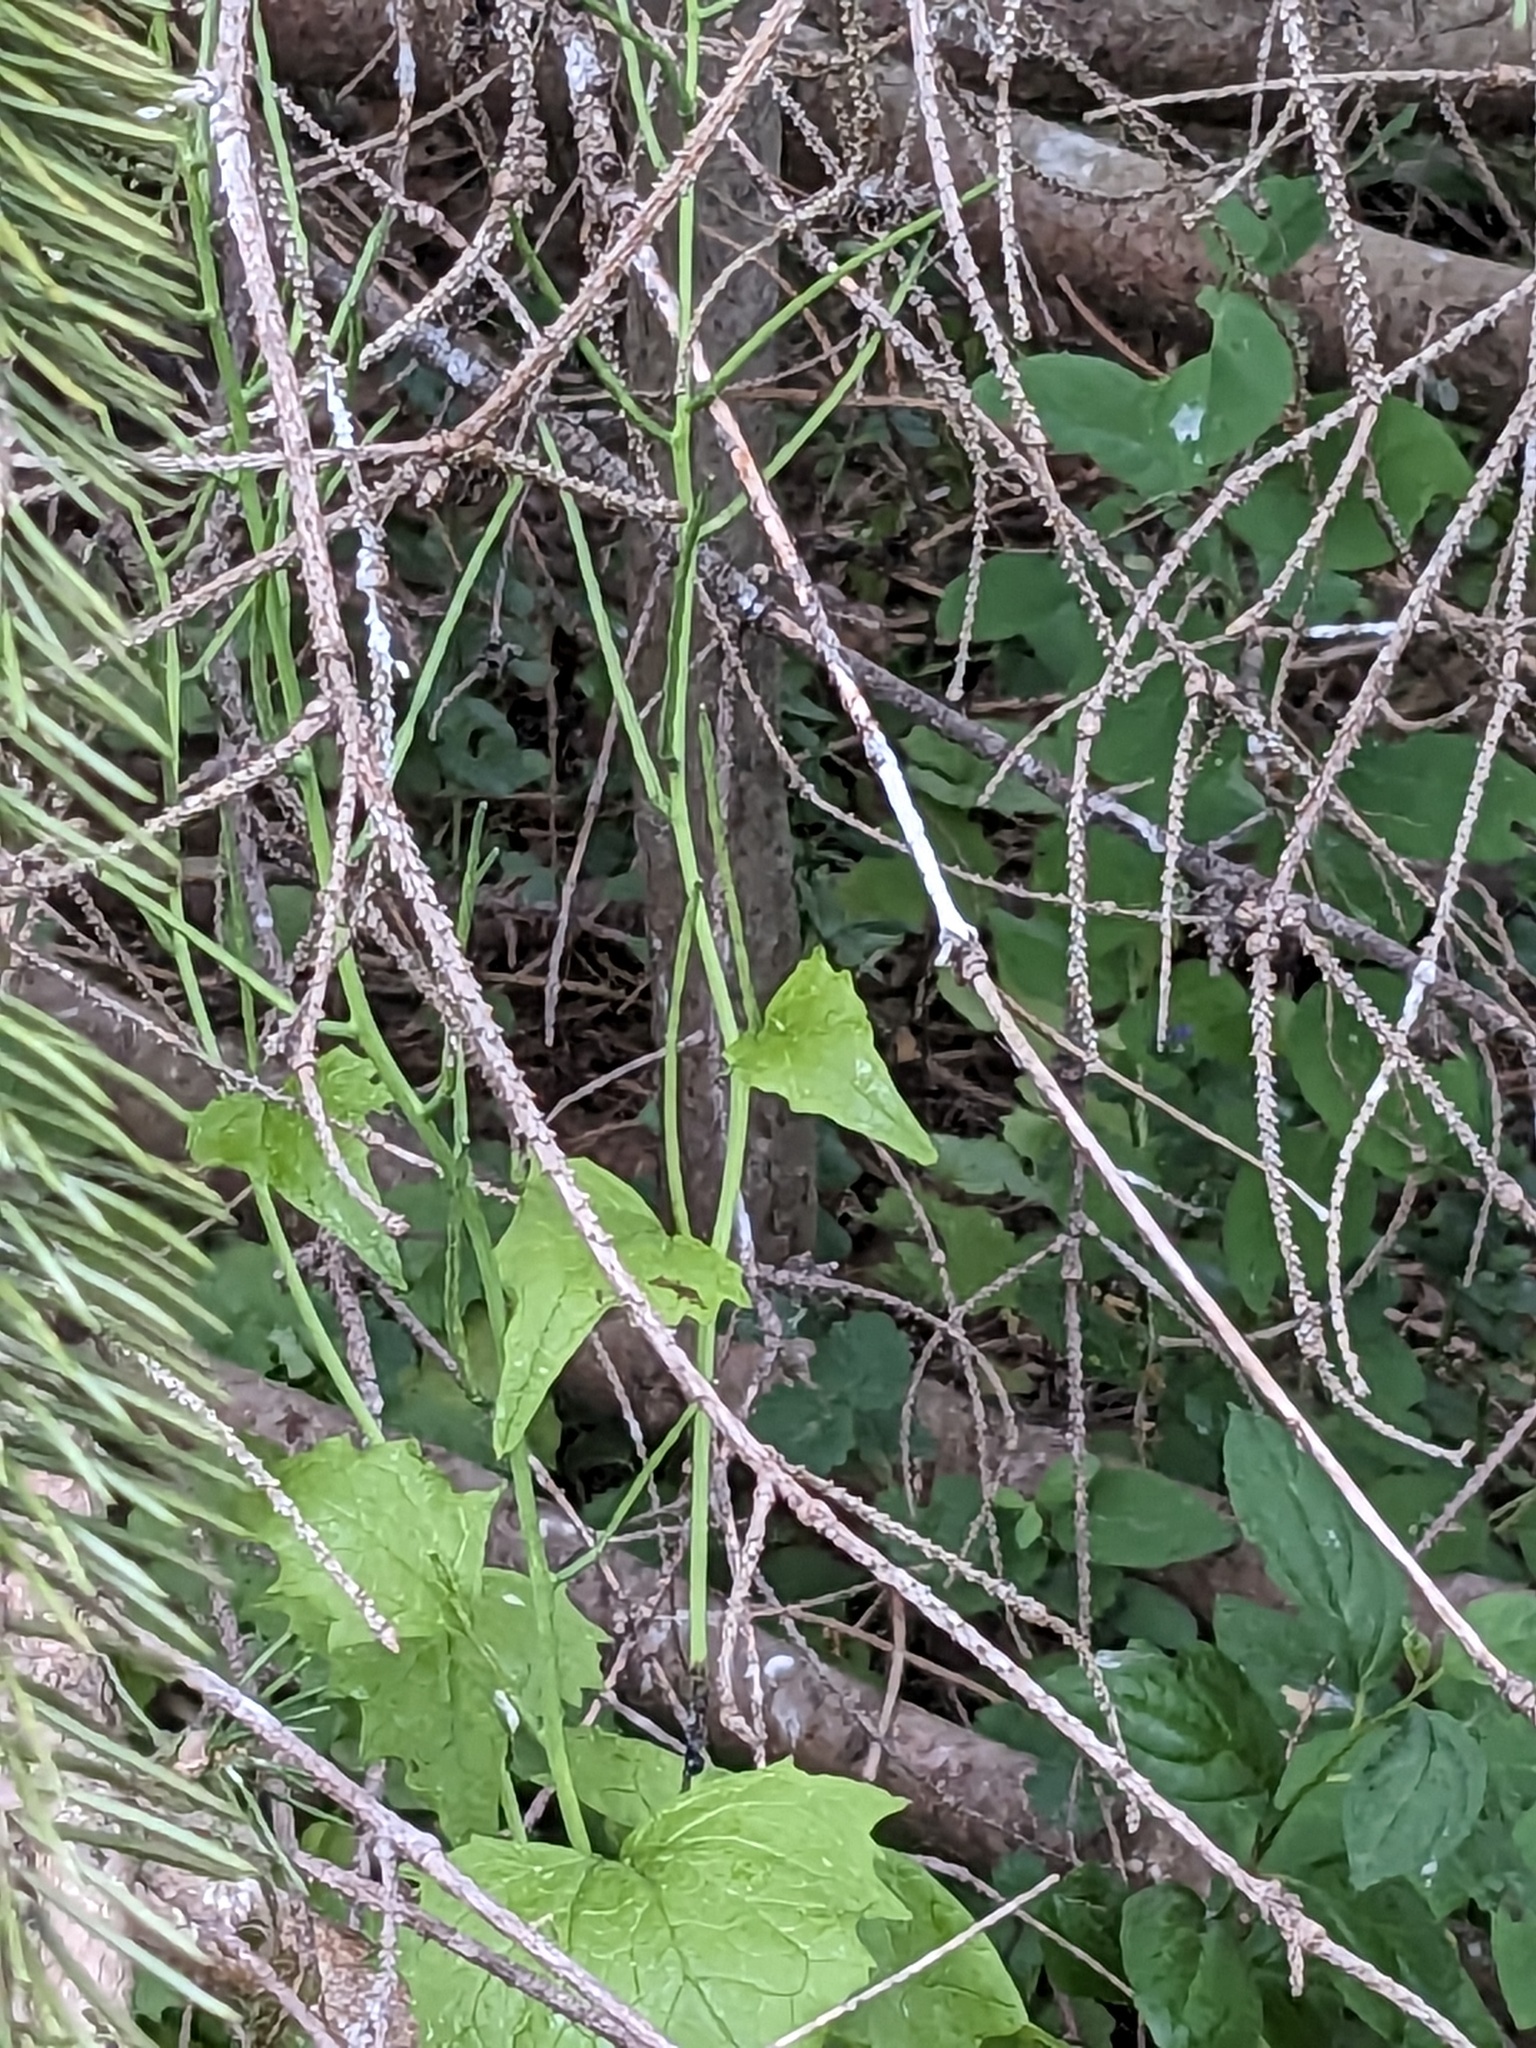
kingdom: Plantae
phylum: Tracheophyta
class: Magnoliopsida
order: Brassicales
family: Brassicaceae
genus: Alliaria
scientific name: Alliaria petiolata
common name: Garlic mustard
